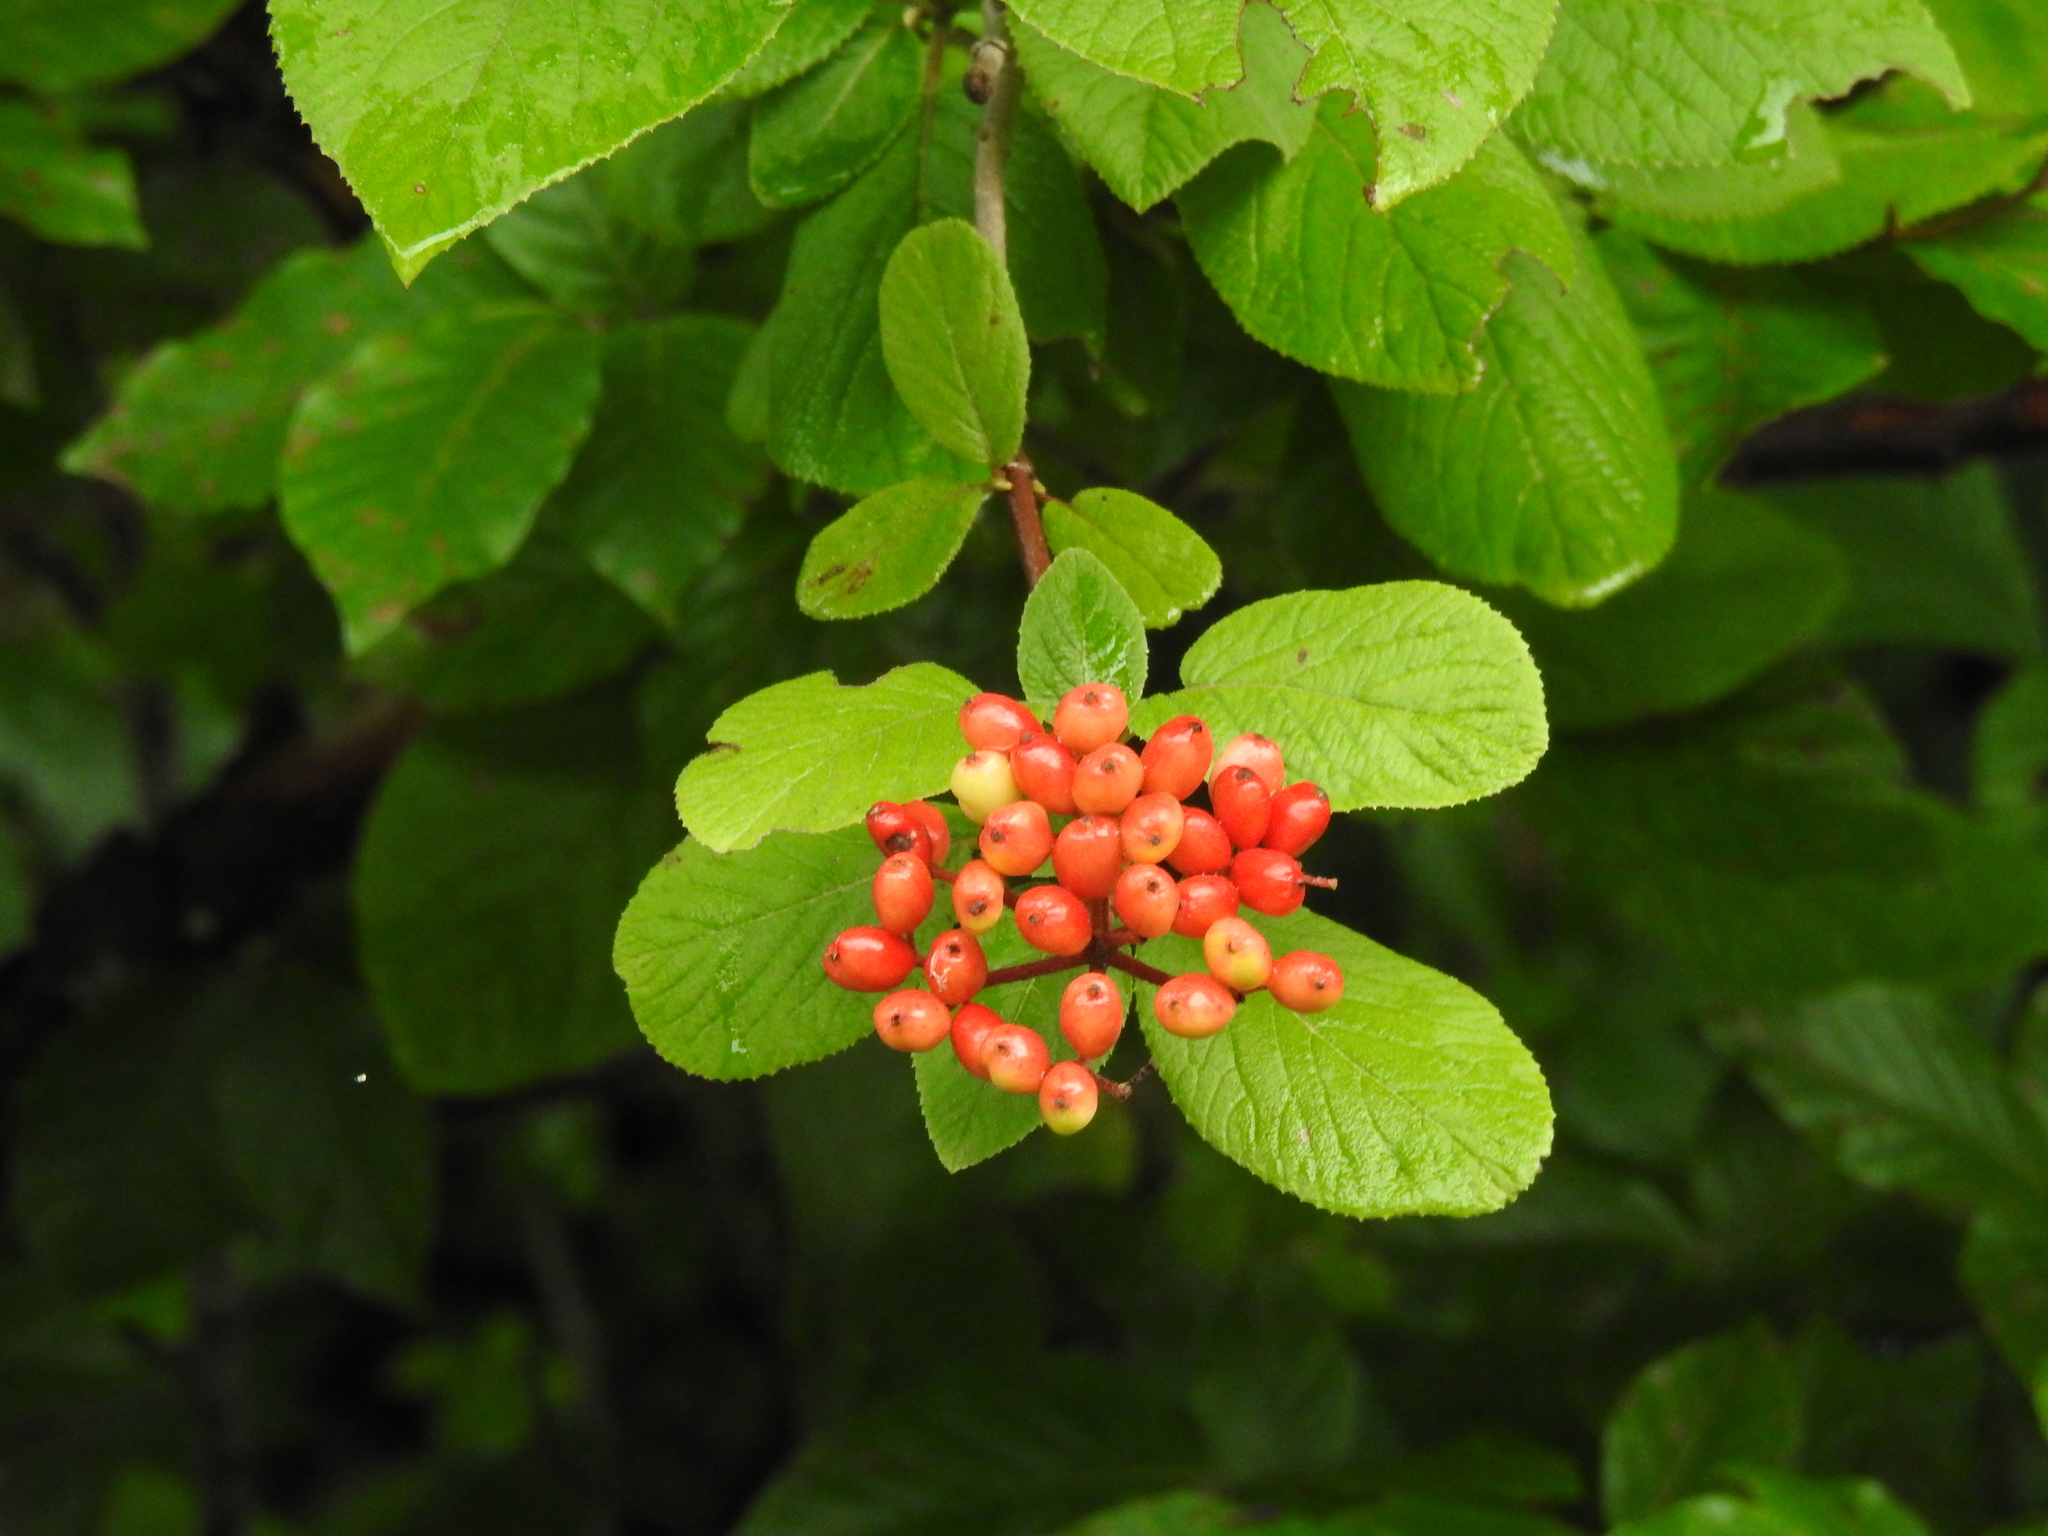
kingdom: Plantae
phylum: Tracheophyta
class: Magnoliopsida
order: Dipsacales
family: Viburnaceae
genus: Viburnum
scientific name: Viburnum lantana
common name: Wayfaring tree
